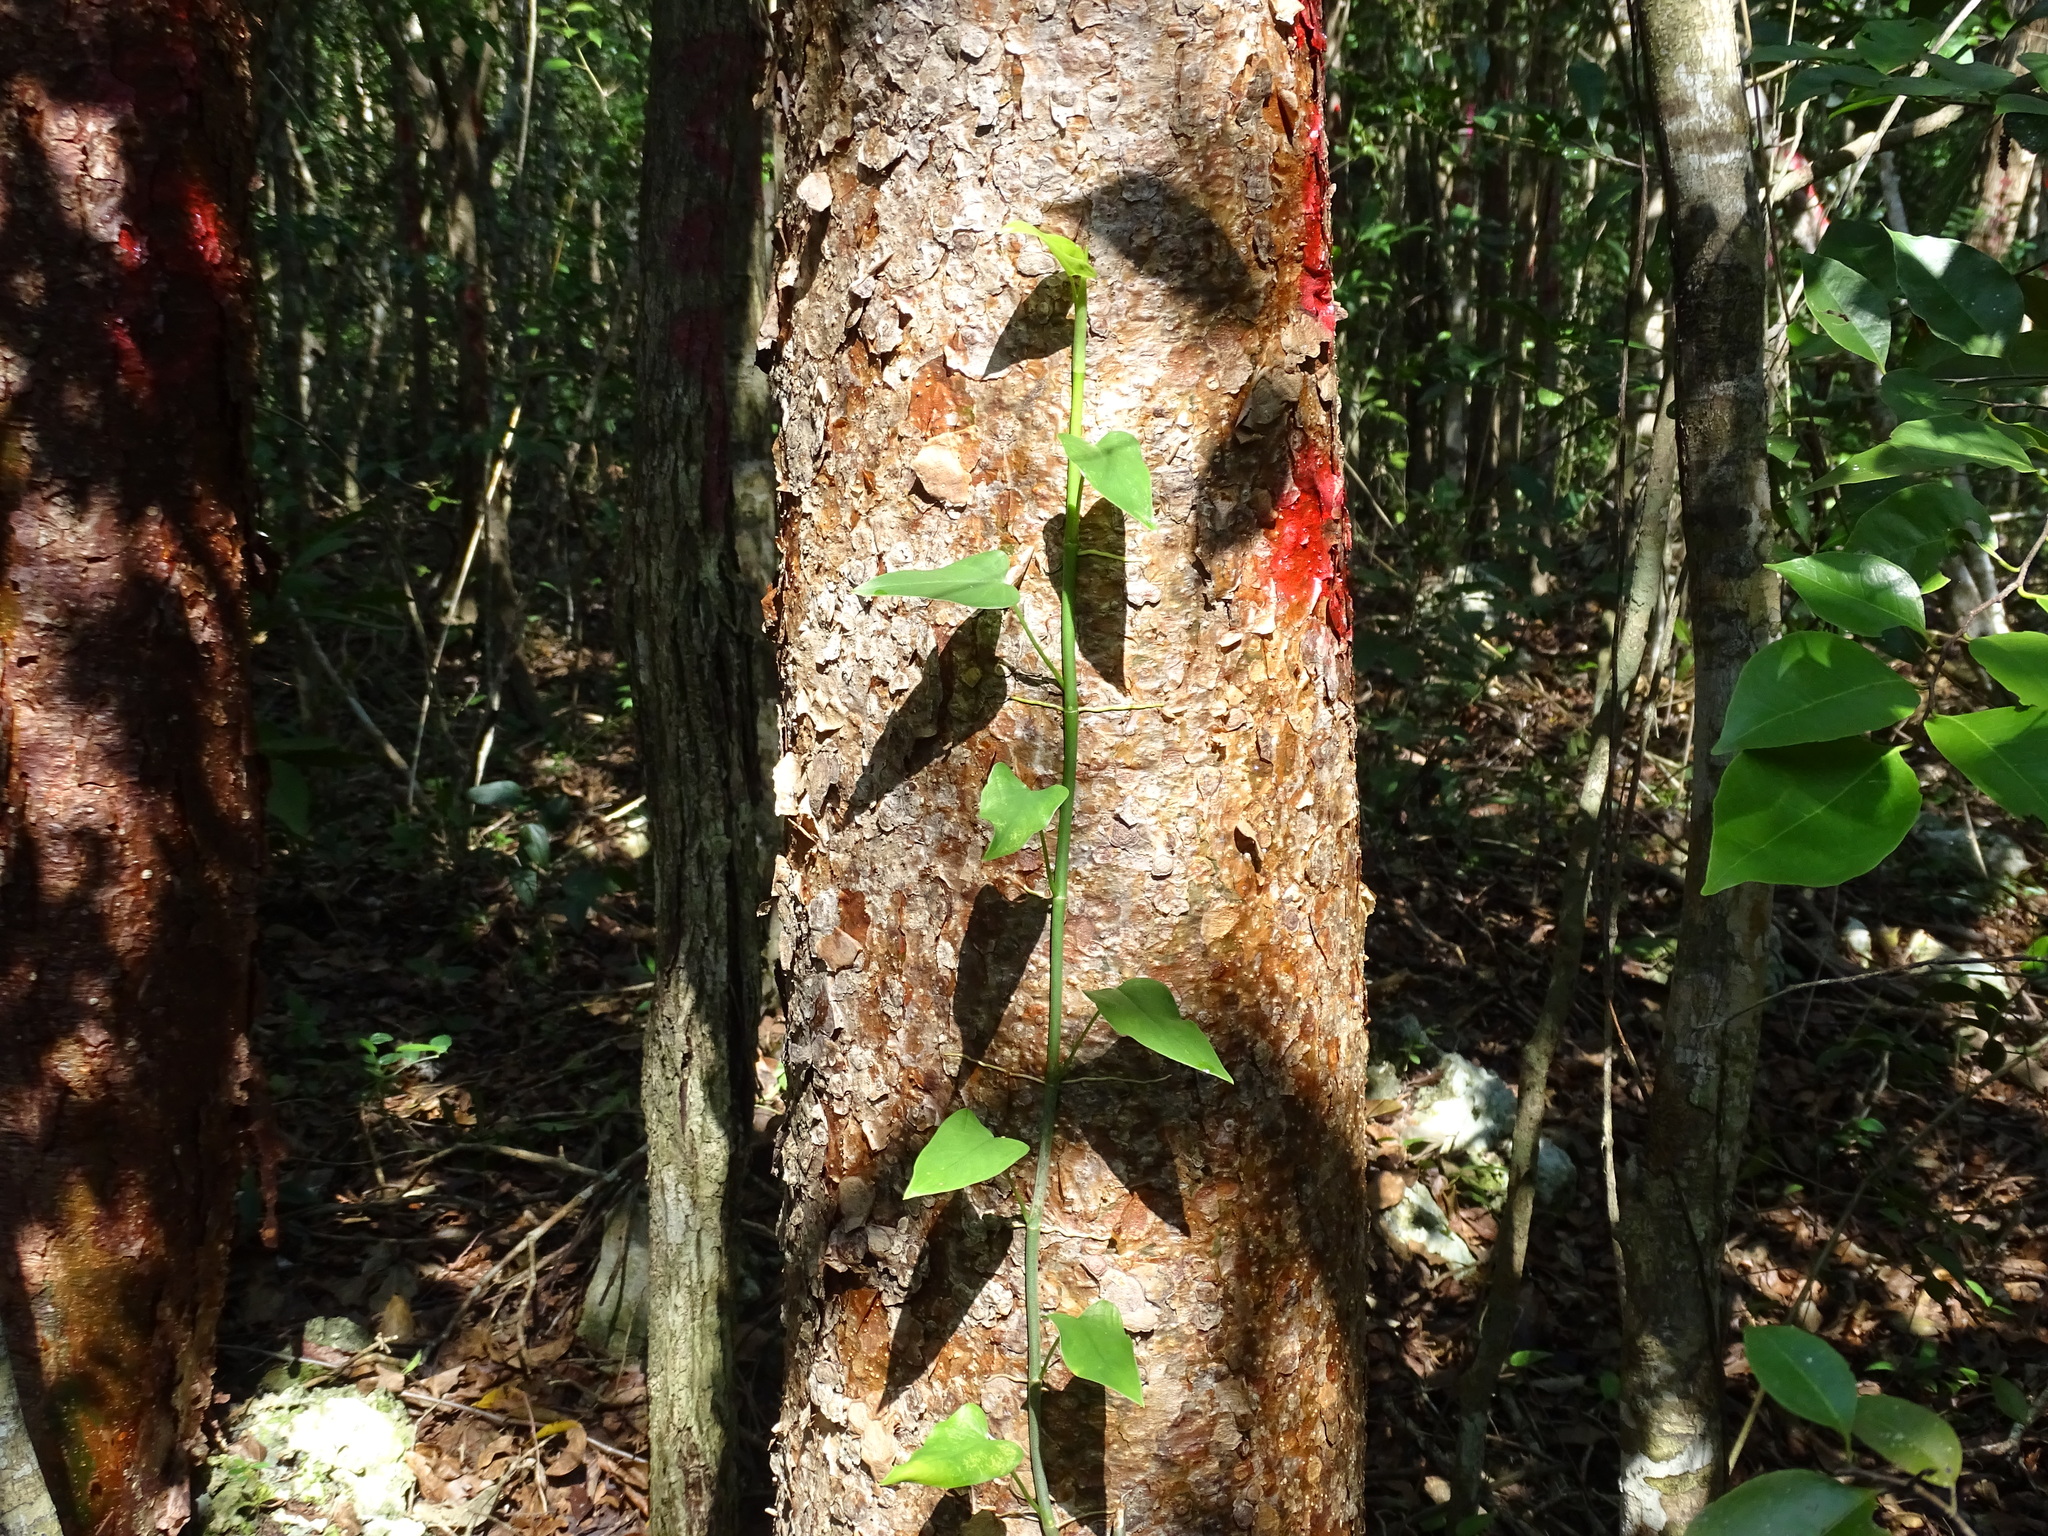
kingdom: Plantae
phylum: Tracheophyta
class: Liliopsida
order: Alismatales
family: Araceae
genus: Philodendron
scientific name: Philodendron jacquinii
